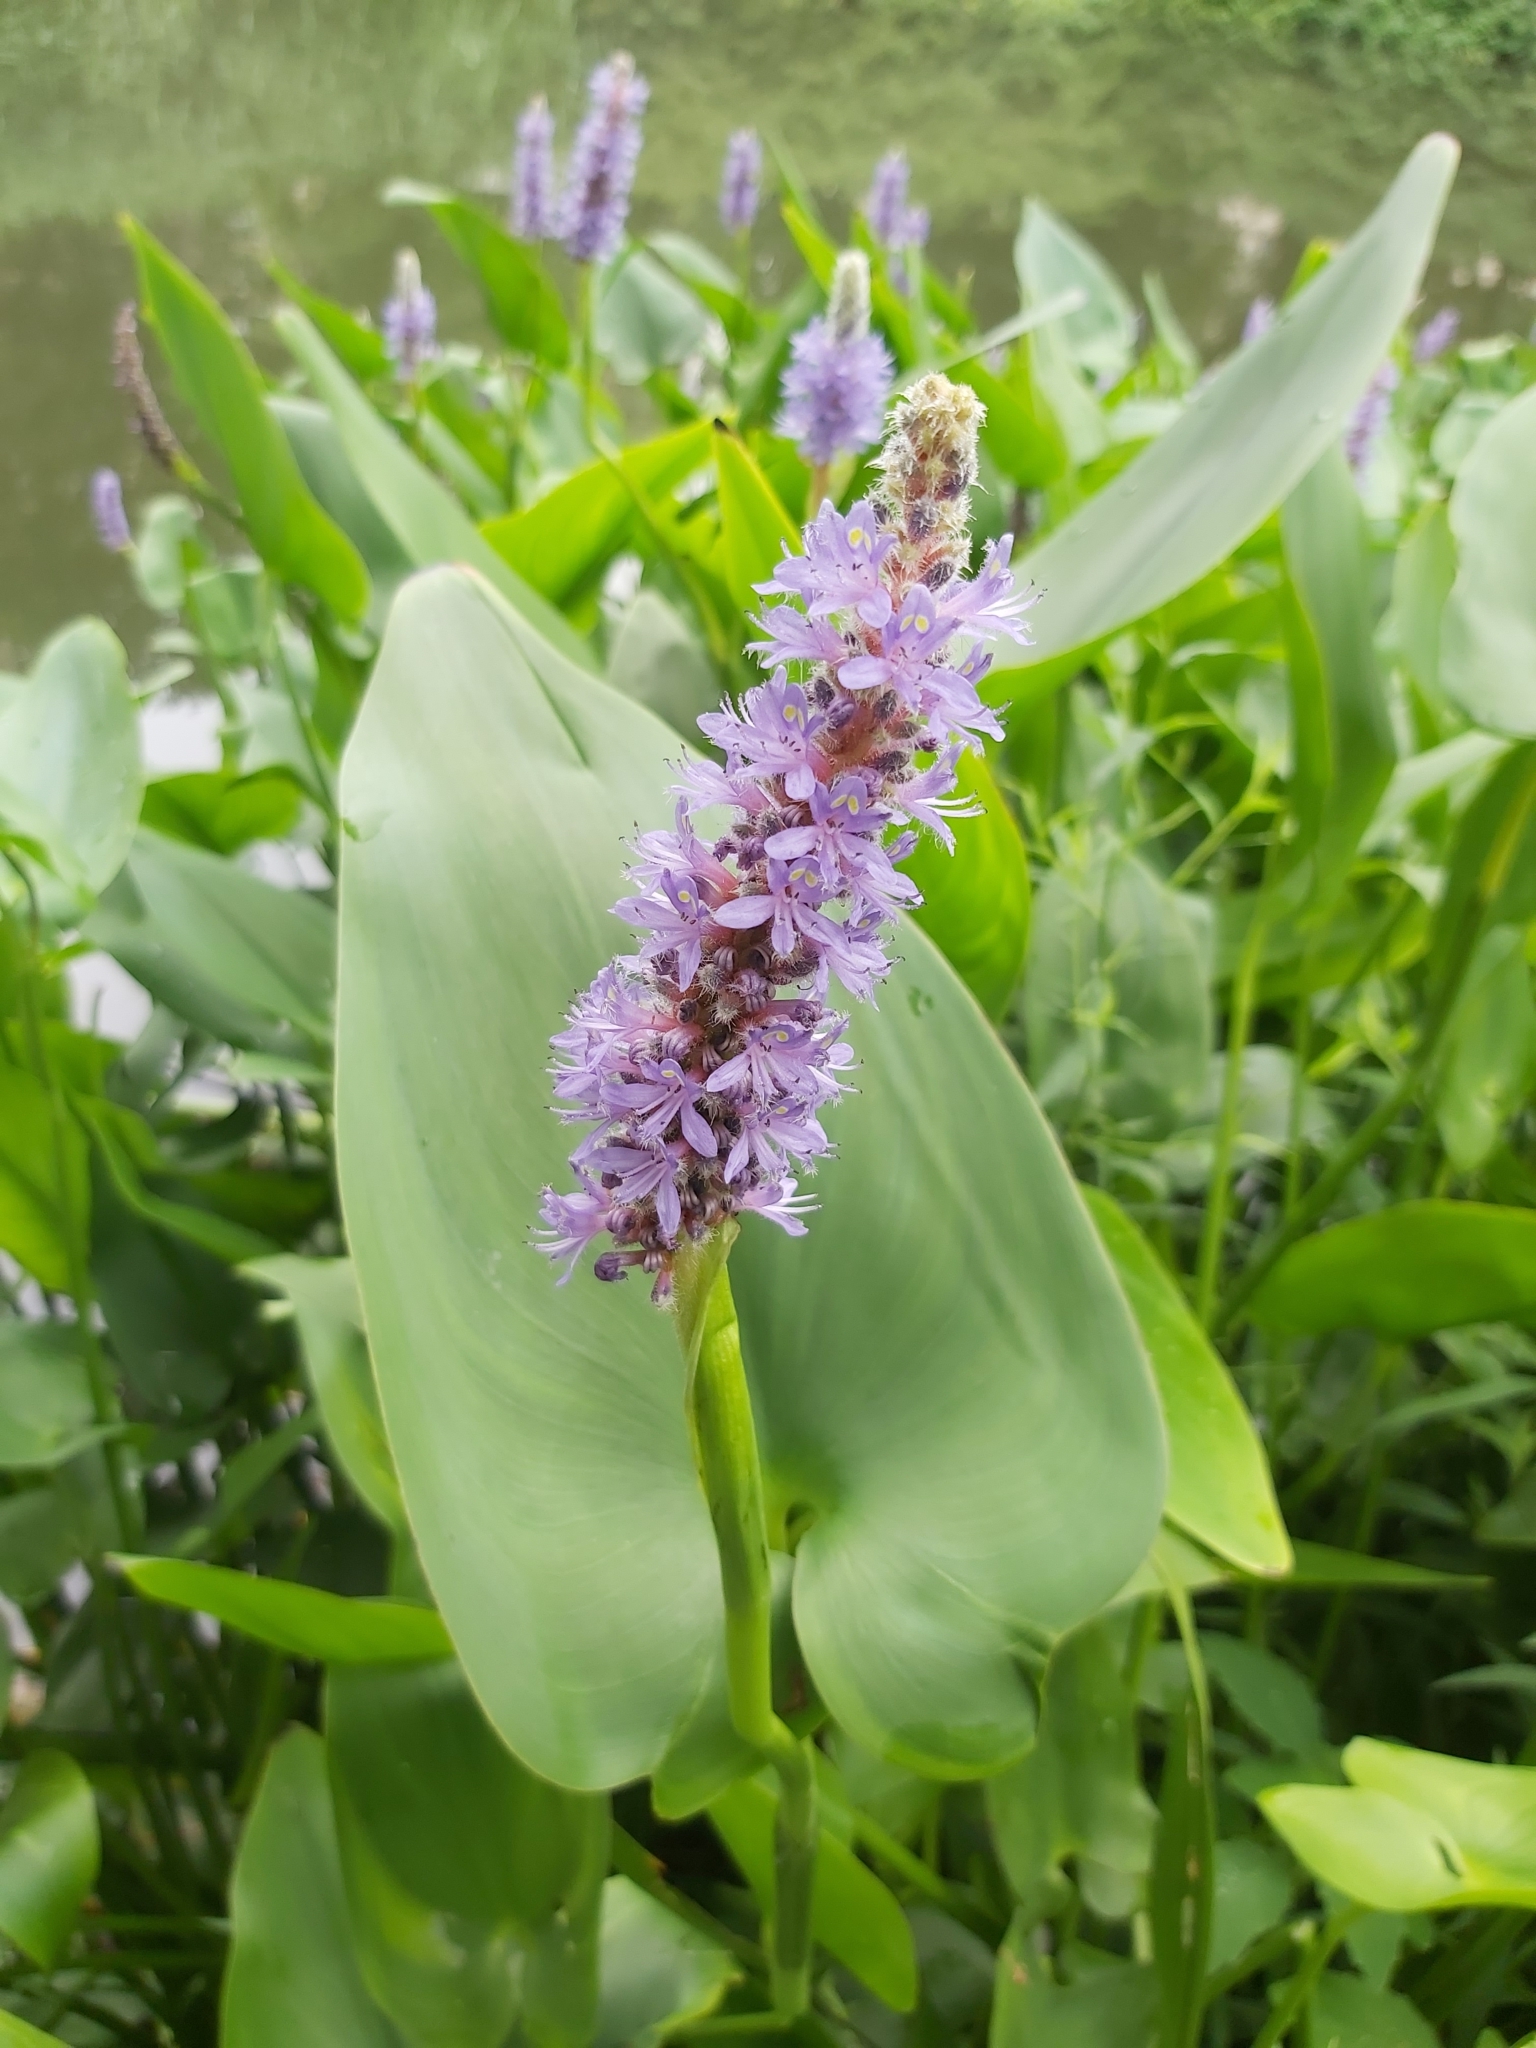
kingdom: Plantae
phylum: Tracheophyta
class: Liliopsida
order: Commelinales
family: Pontederiaceae
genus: Pontederia
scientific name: Pontederia cordata
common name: Pickerelweed
